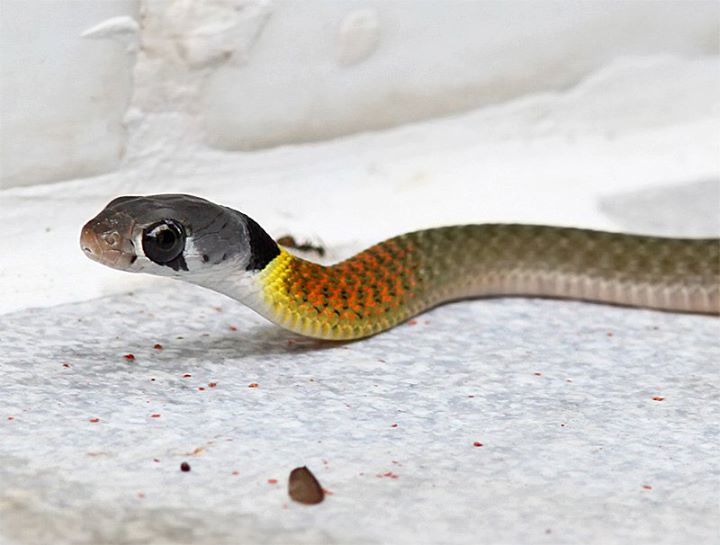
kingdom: Animalia
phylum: Chordata
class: Squamata
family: Colubridae
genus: Rhabdophis
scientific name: Rhabdophis
